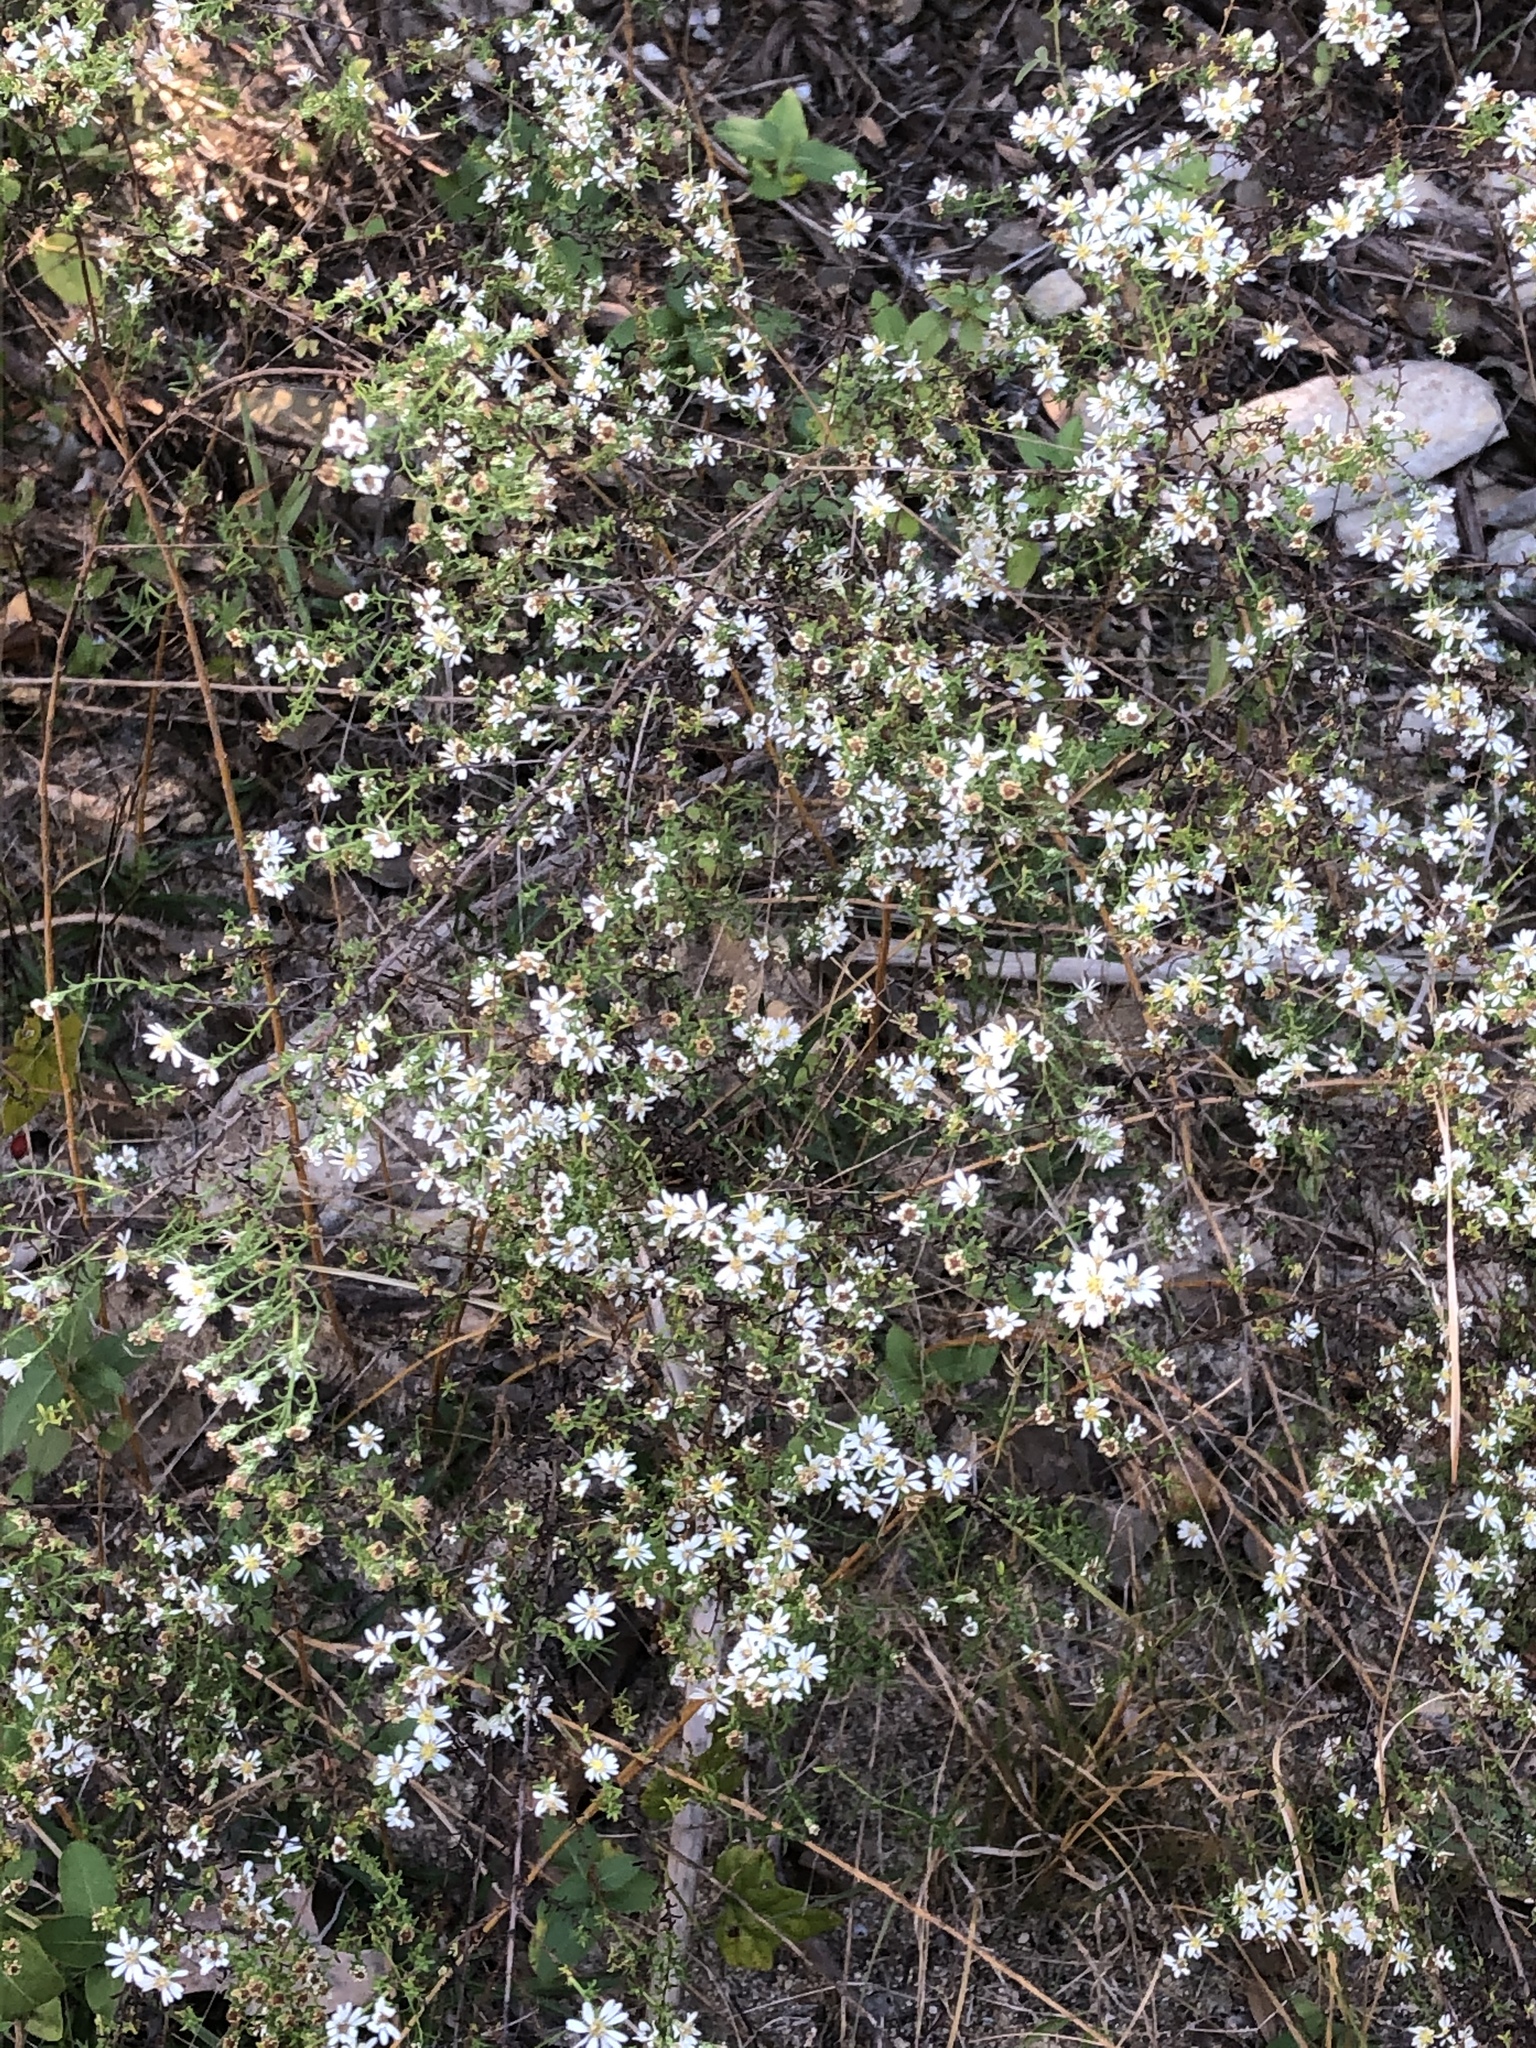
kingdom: Plantae
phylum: Tracheophyta
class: Magnoliopsida
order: Asterales
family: Asteraceae
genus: Symphyotrichum
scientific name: Symphyotrichum ericoides
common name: Heath aster
